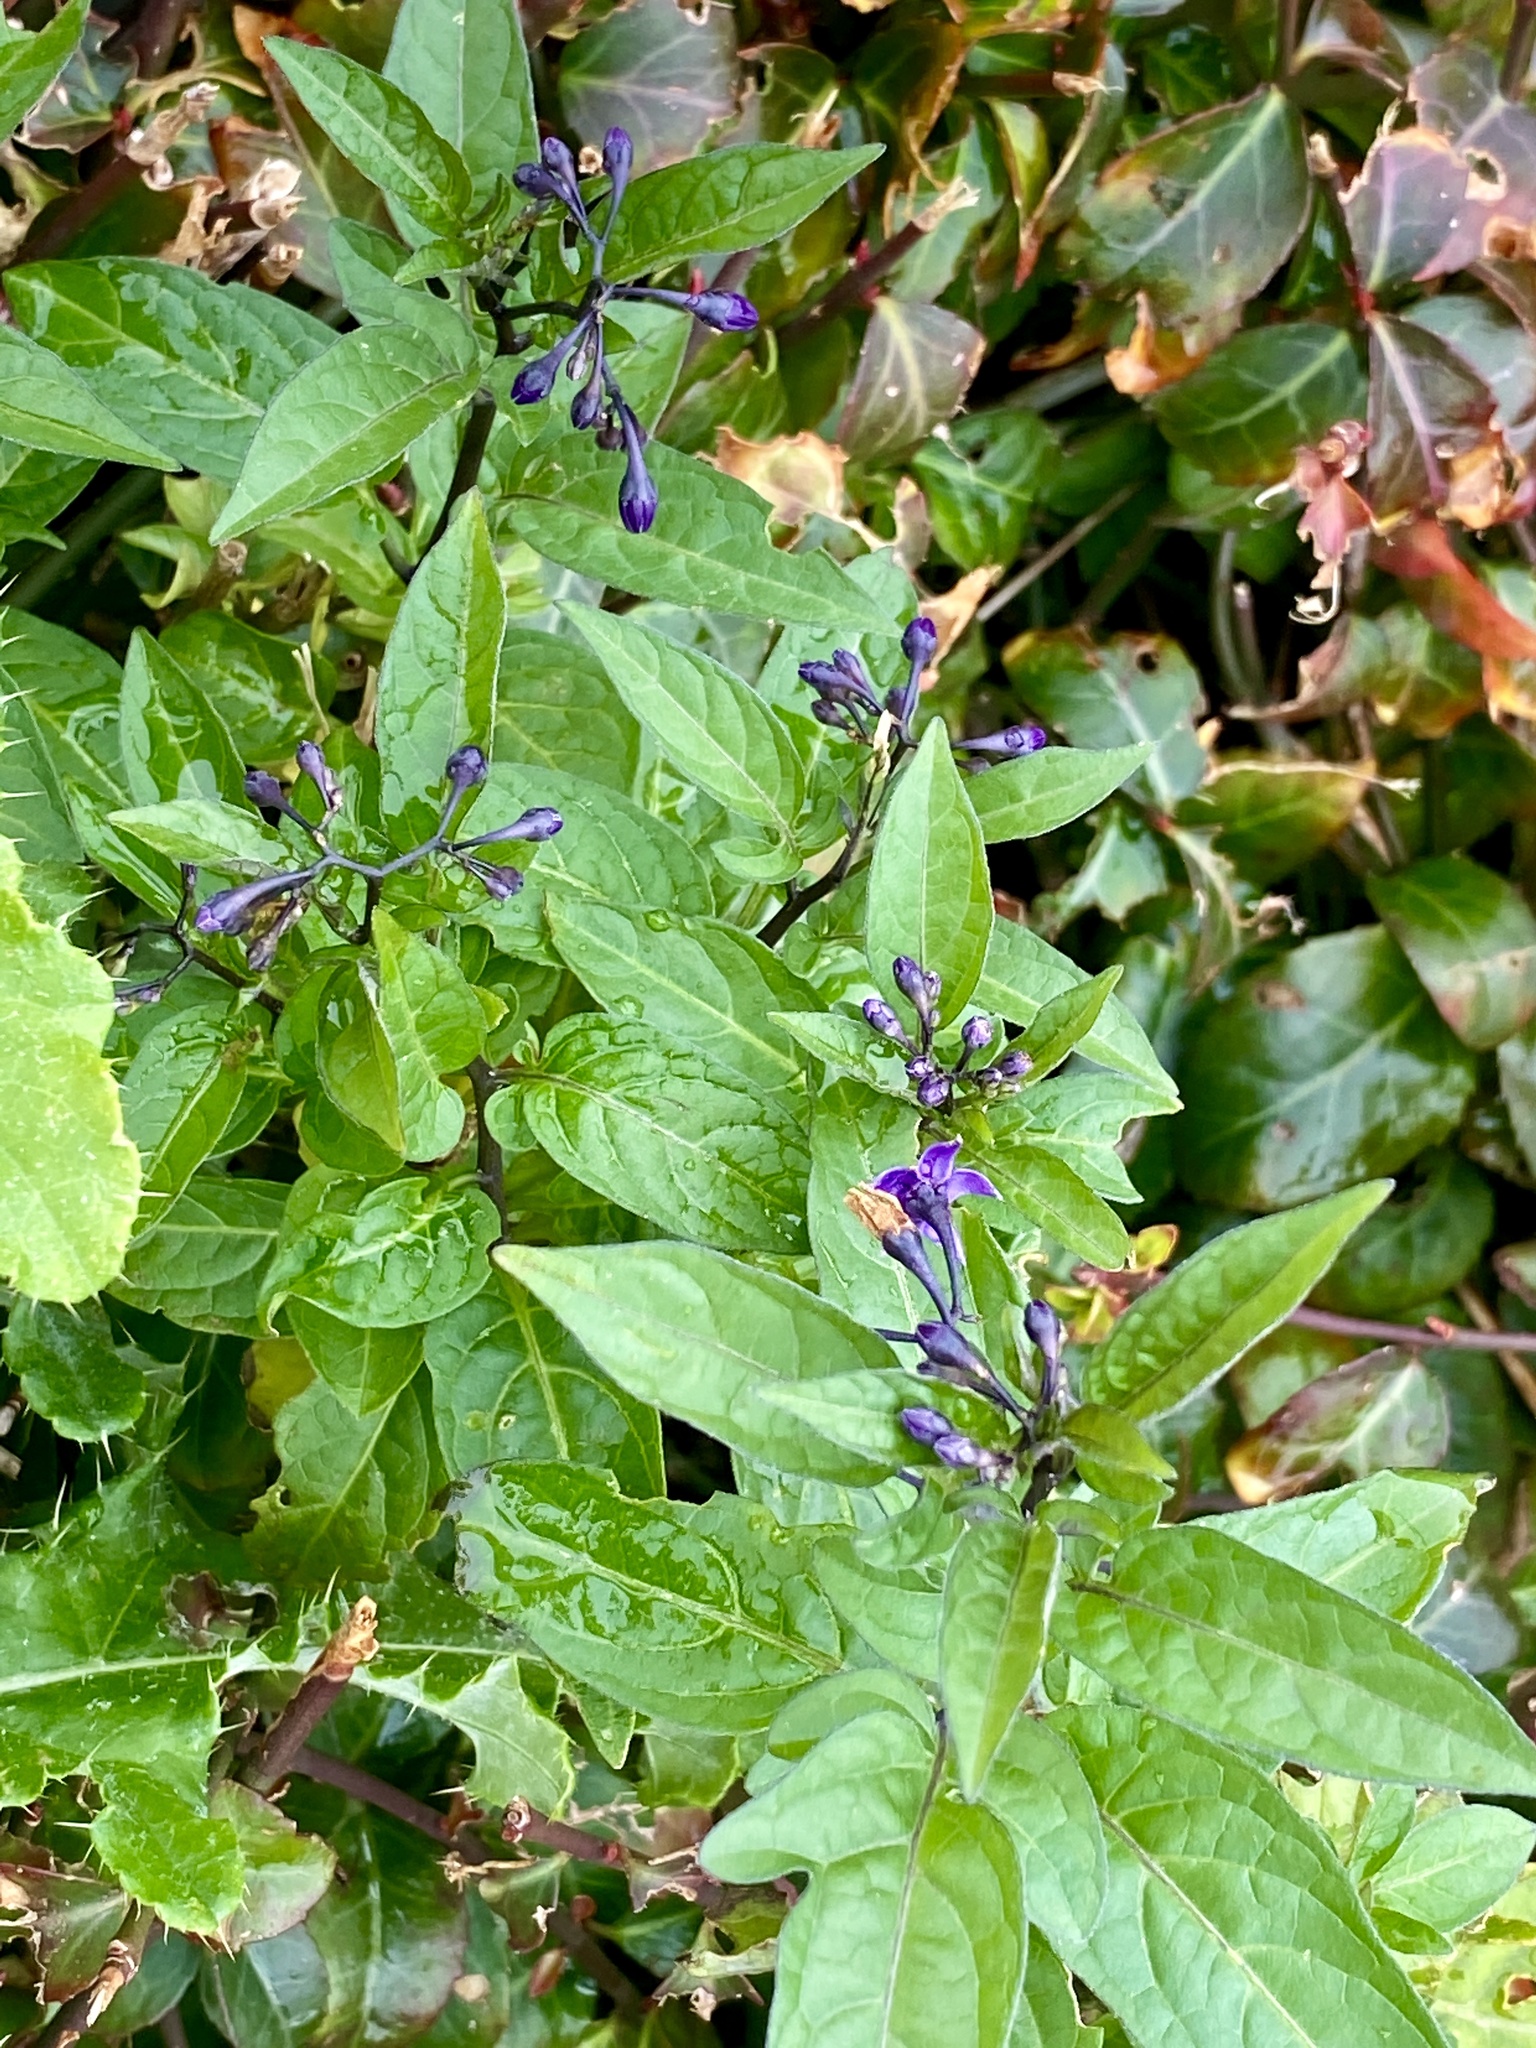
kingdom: Plantae
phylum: Tracheophyta
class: Magnoliopsida
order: Solanales
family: Solanaceae
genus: Solanum
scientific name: Solanum dulcamara
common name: Climbing nightshade
